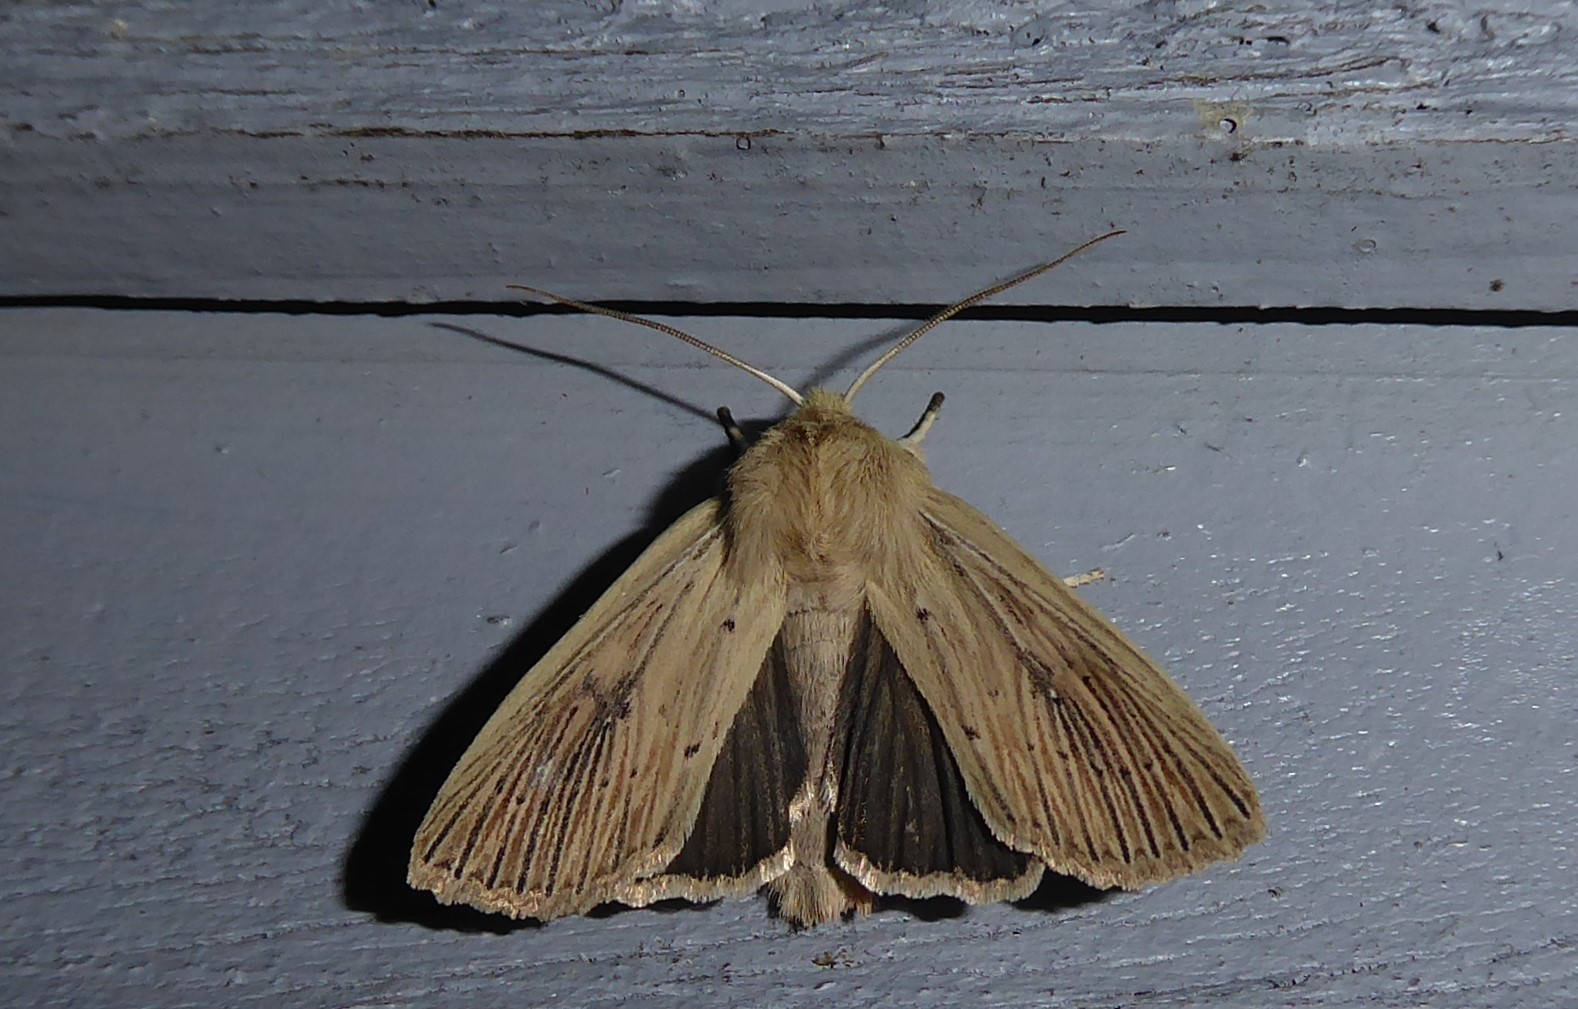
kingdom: Animalia
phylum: Arthropoda
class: Insecta
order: Lepidoptera
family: Noctuidae
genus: Ichneutica
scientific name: Ichneutica arotis
